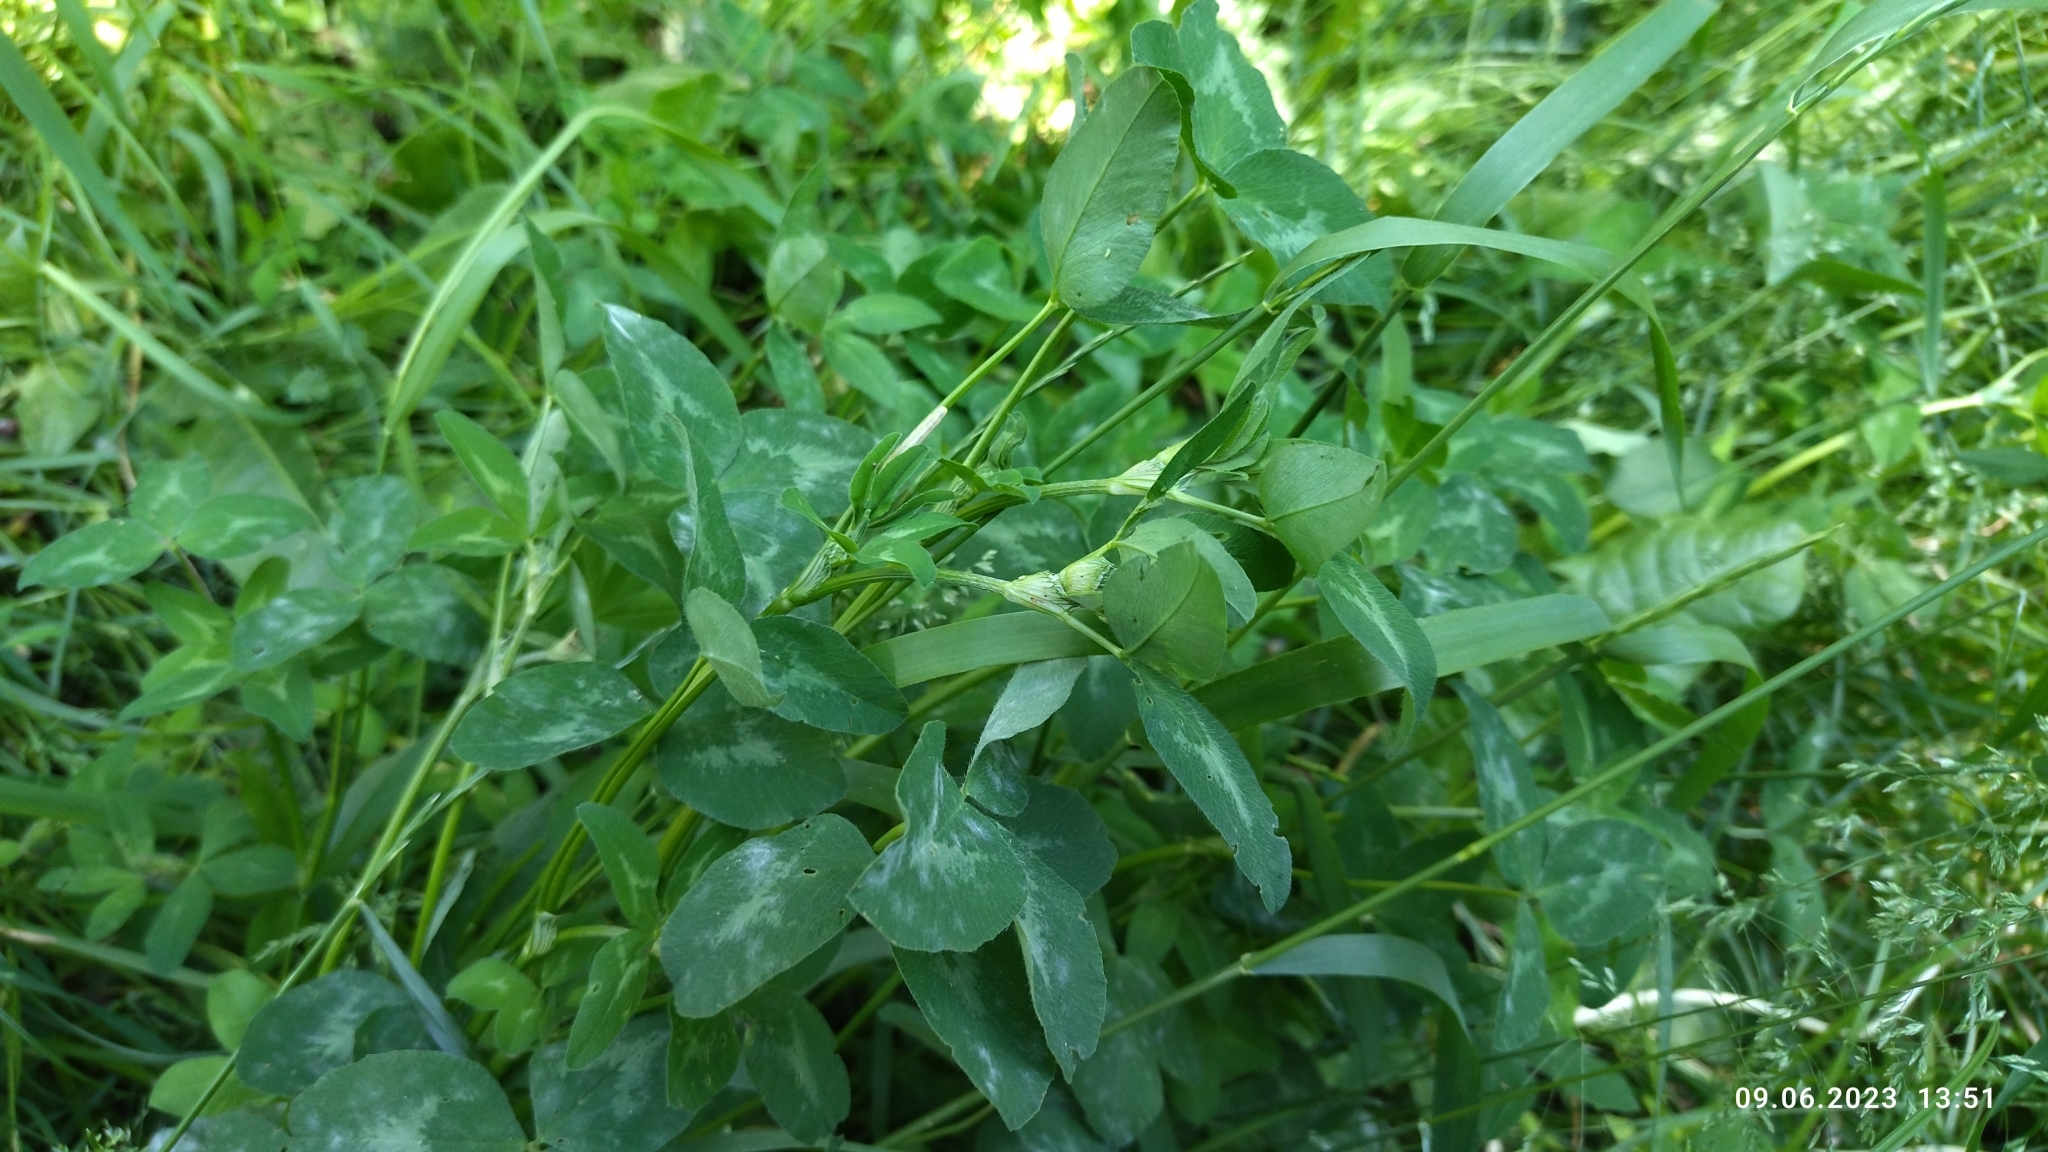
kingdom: Plantae
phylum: Tracheophyta
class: Magnoliopsida
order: Fabales
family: Fabaceae
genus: Trifolium
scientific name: Trifolium pratense
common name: Red clover
